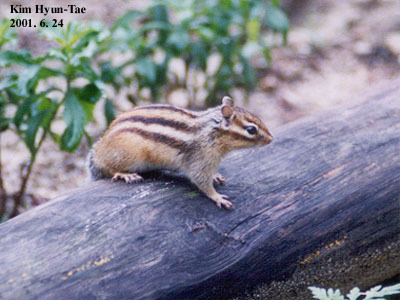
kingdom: Animalia
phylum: Chordata
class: Mammalia
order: Rodentia
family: Sciuridae
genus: Tamias
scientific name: Tamias sibiricus
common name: Siberian chipmunk
